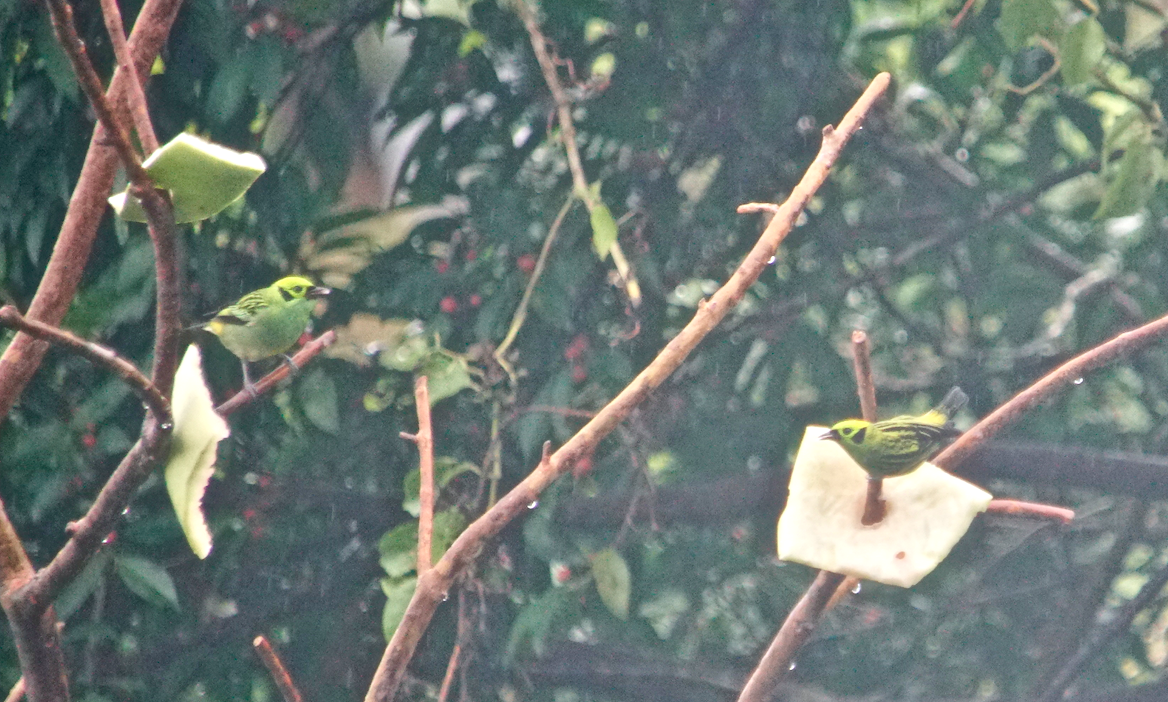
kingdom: Animalia
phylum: Chordata
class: Aves
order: Passeriformes
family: Thraupidae
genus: Tangara
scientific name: Tangara florida
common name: Emerald tanager
